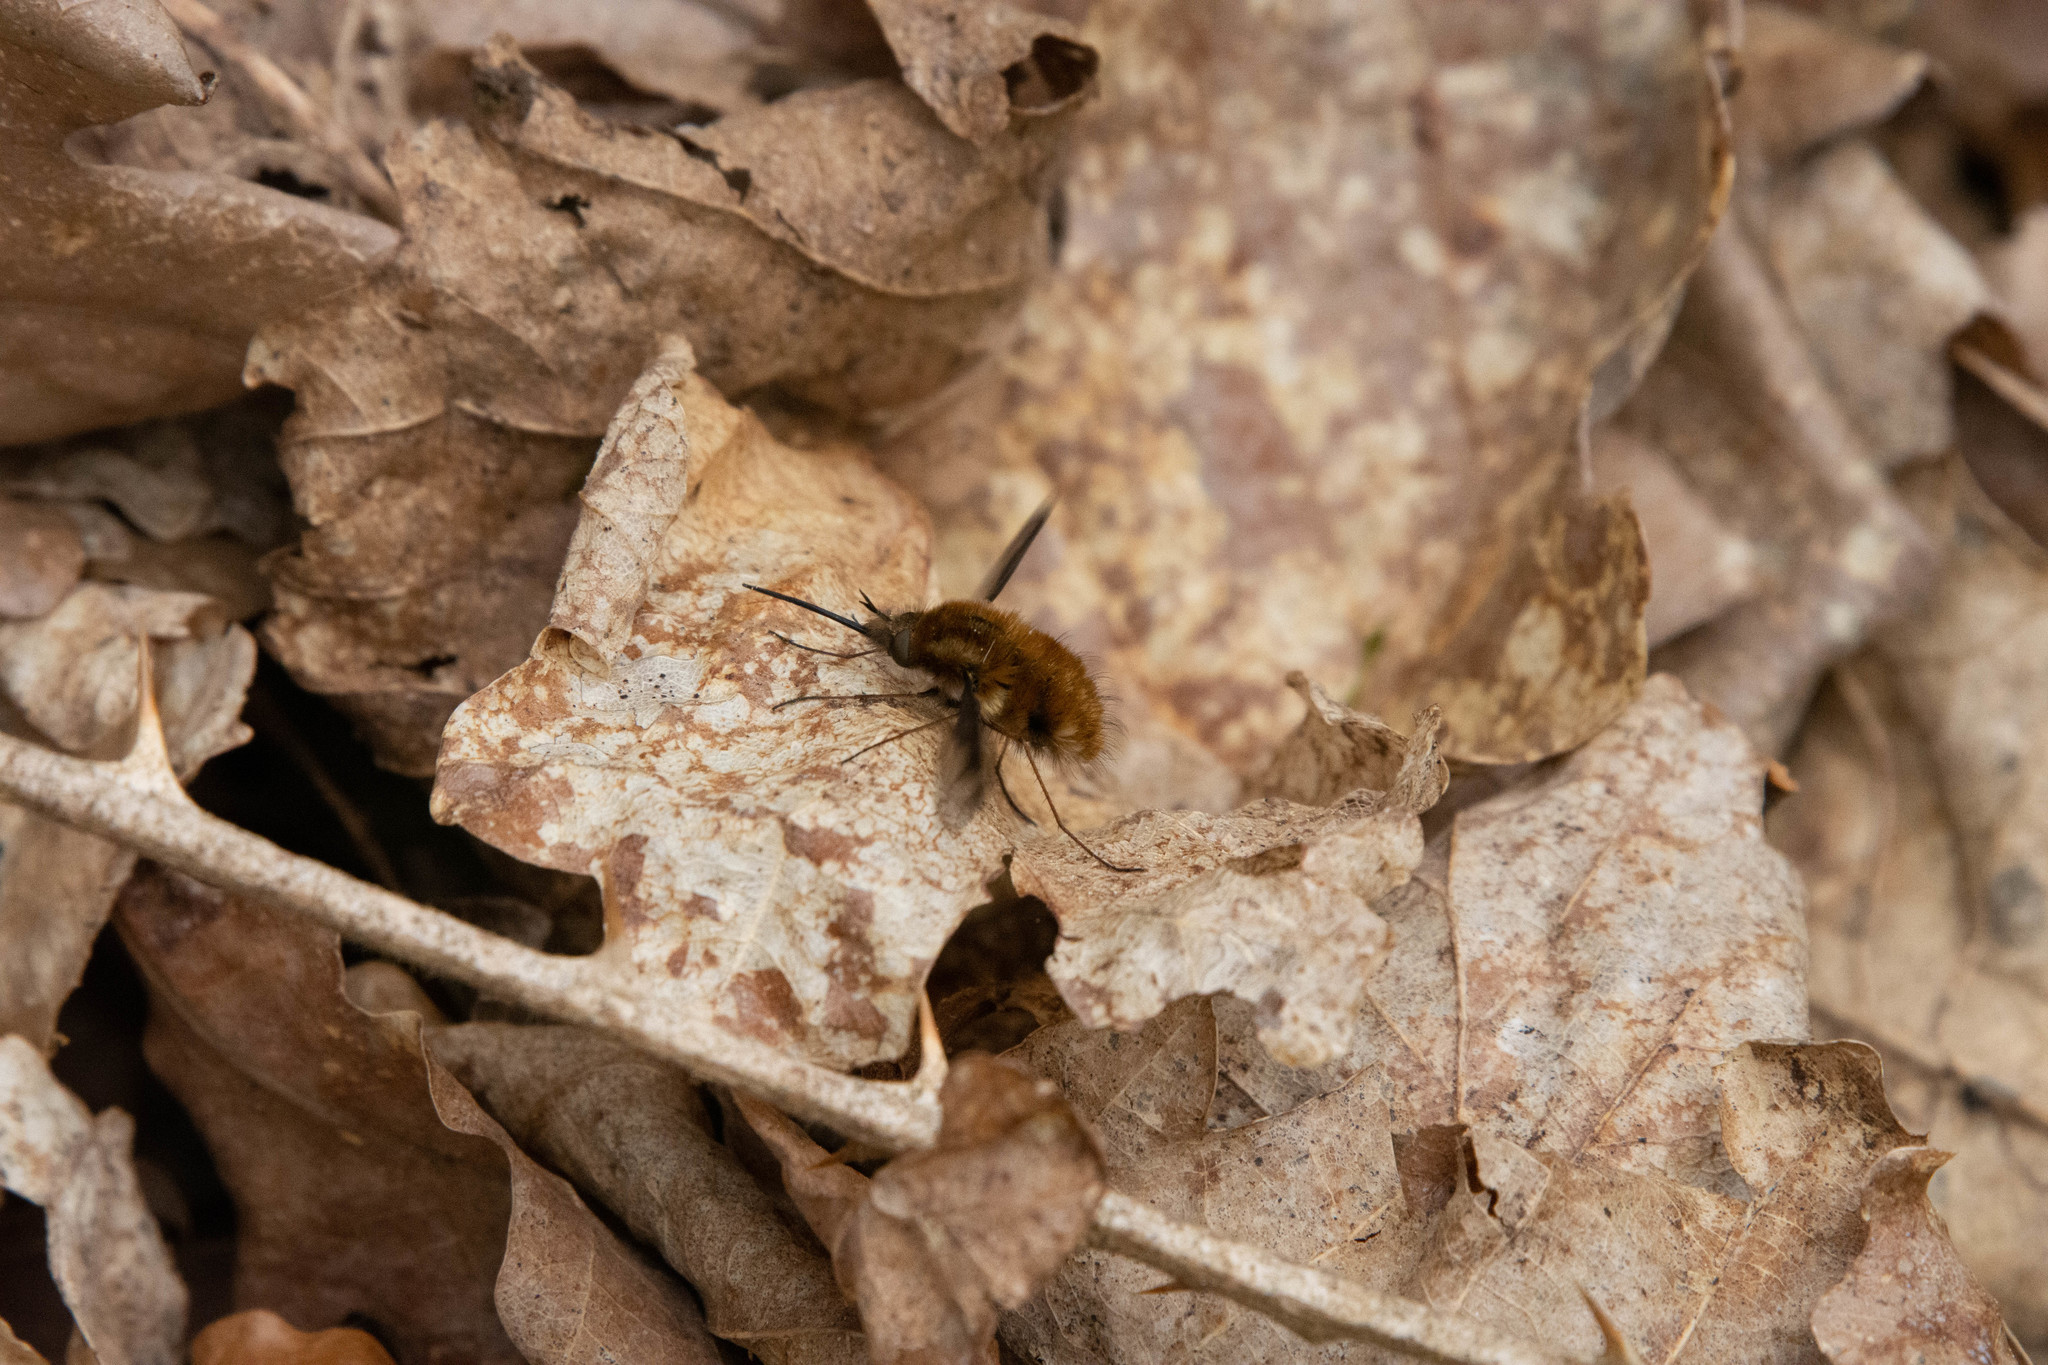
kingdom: Animalia
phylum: Arthropoda
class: Insecta
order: Diptera
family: Bombyliidae
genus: Bombylius
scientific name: Bombylius major
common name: Bee fly
